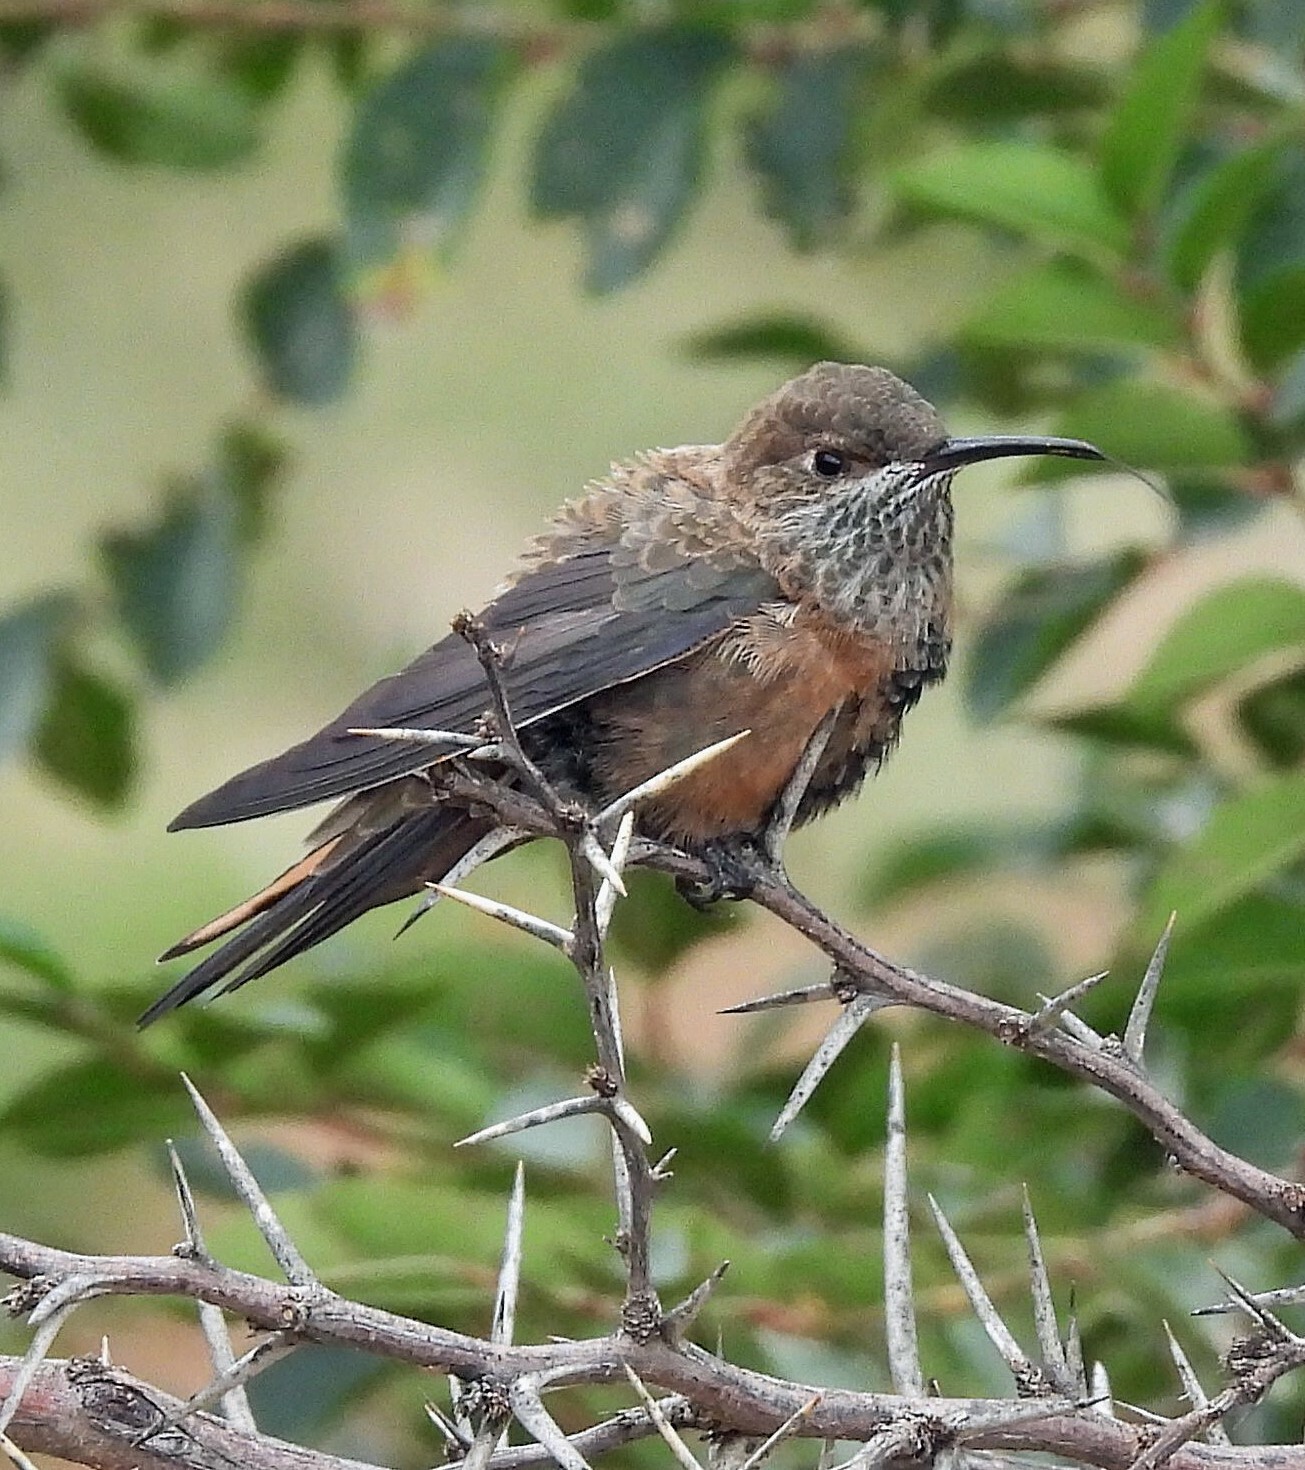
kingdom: Animalia
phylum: Chordata
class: Aves
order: Apodiformes
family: Trochilidae
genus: Oreotrochilus
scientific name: Oreotrochilus adela
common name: Wedge-tailed hillstar
